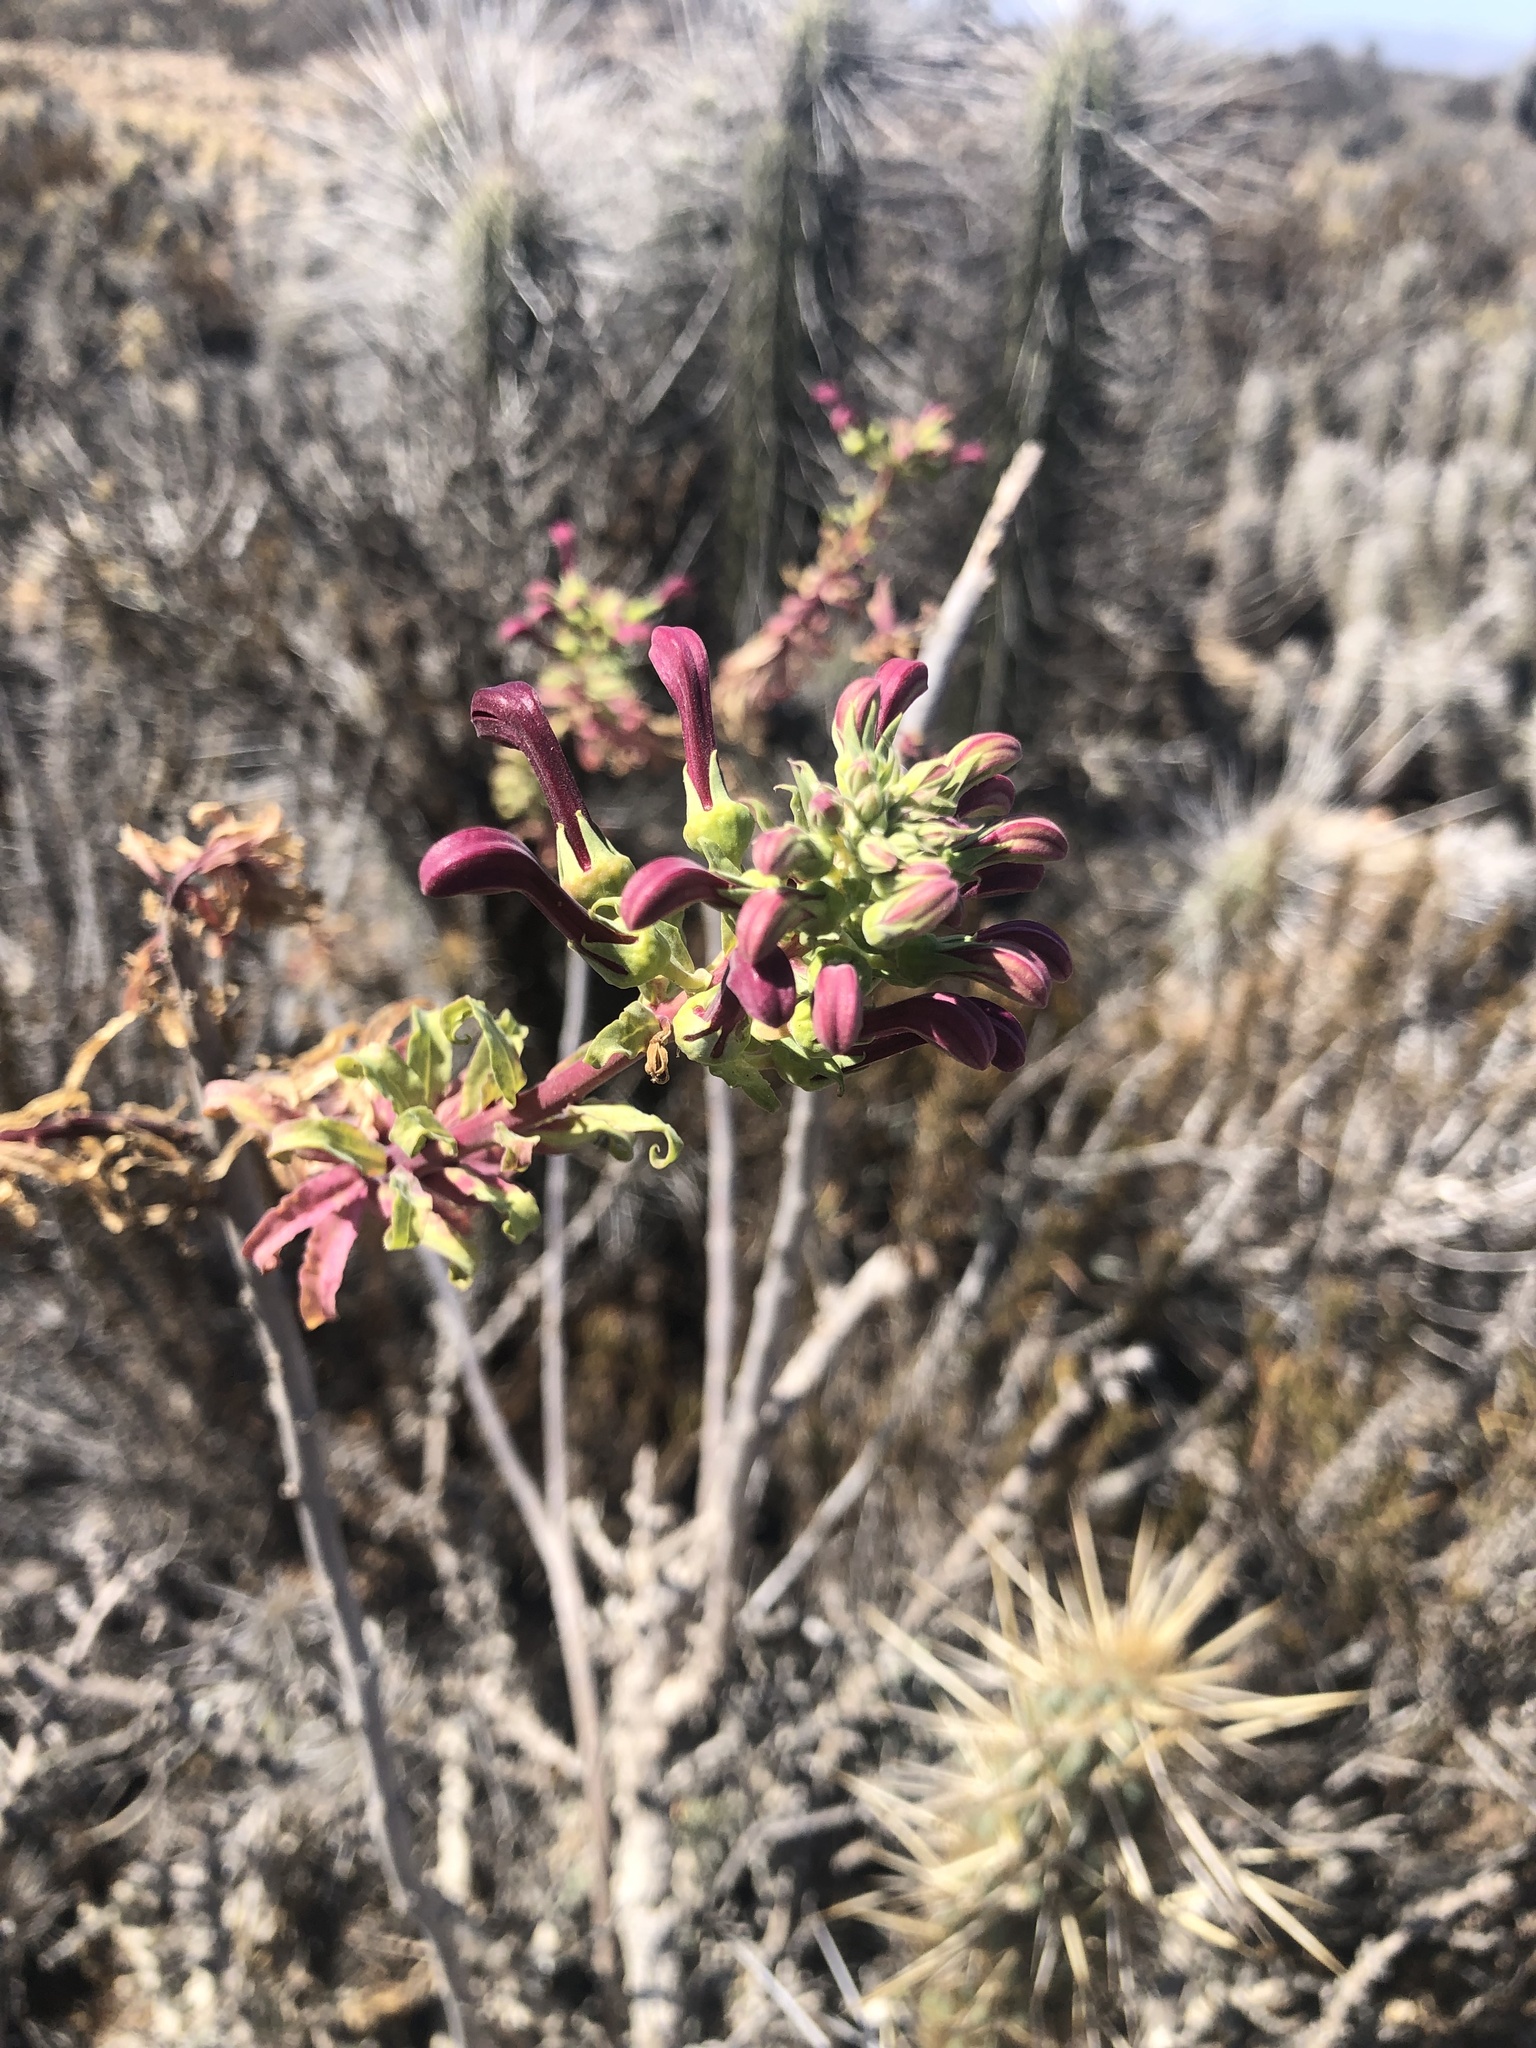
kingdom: Plantae
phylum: Tracheophyta
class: Magnoliopsida
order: Asterales
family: Campanulaceae
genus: Lobelia
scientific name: Lobelia polyphylla
